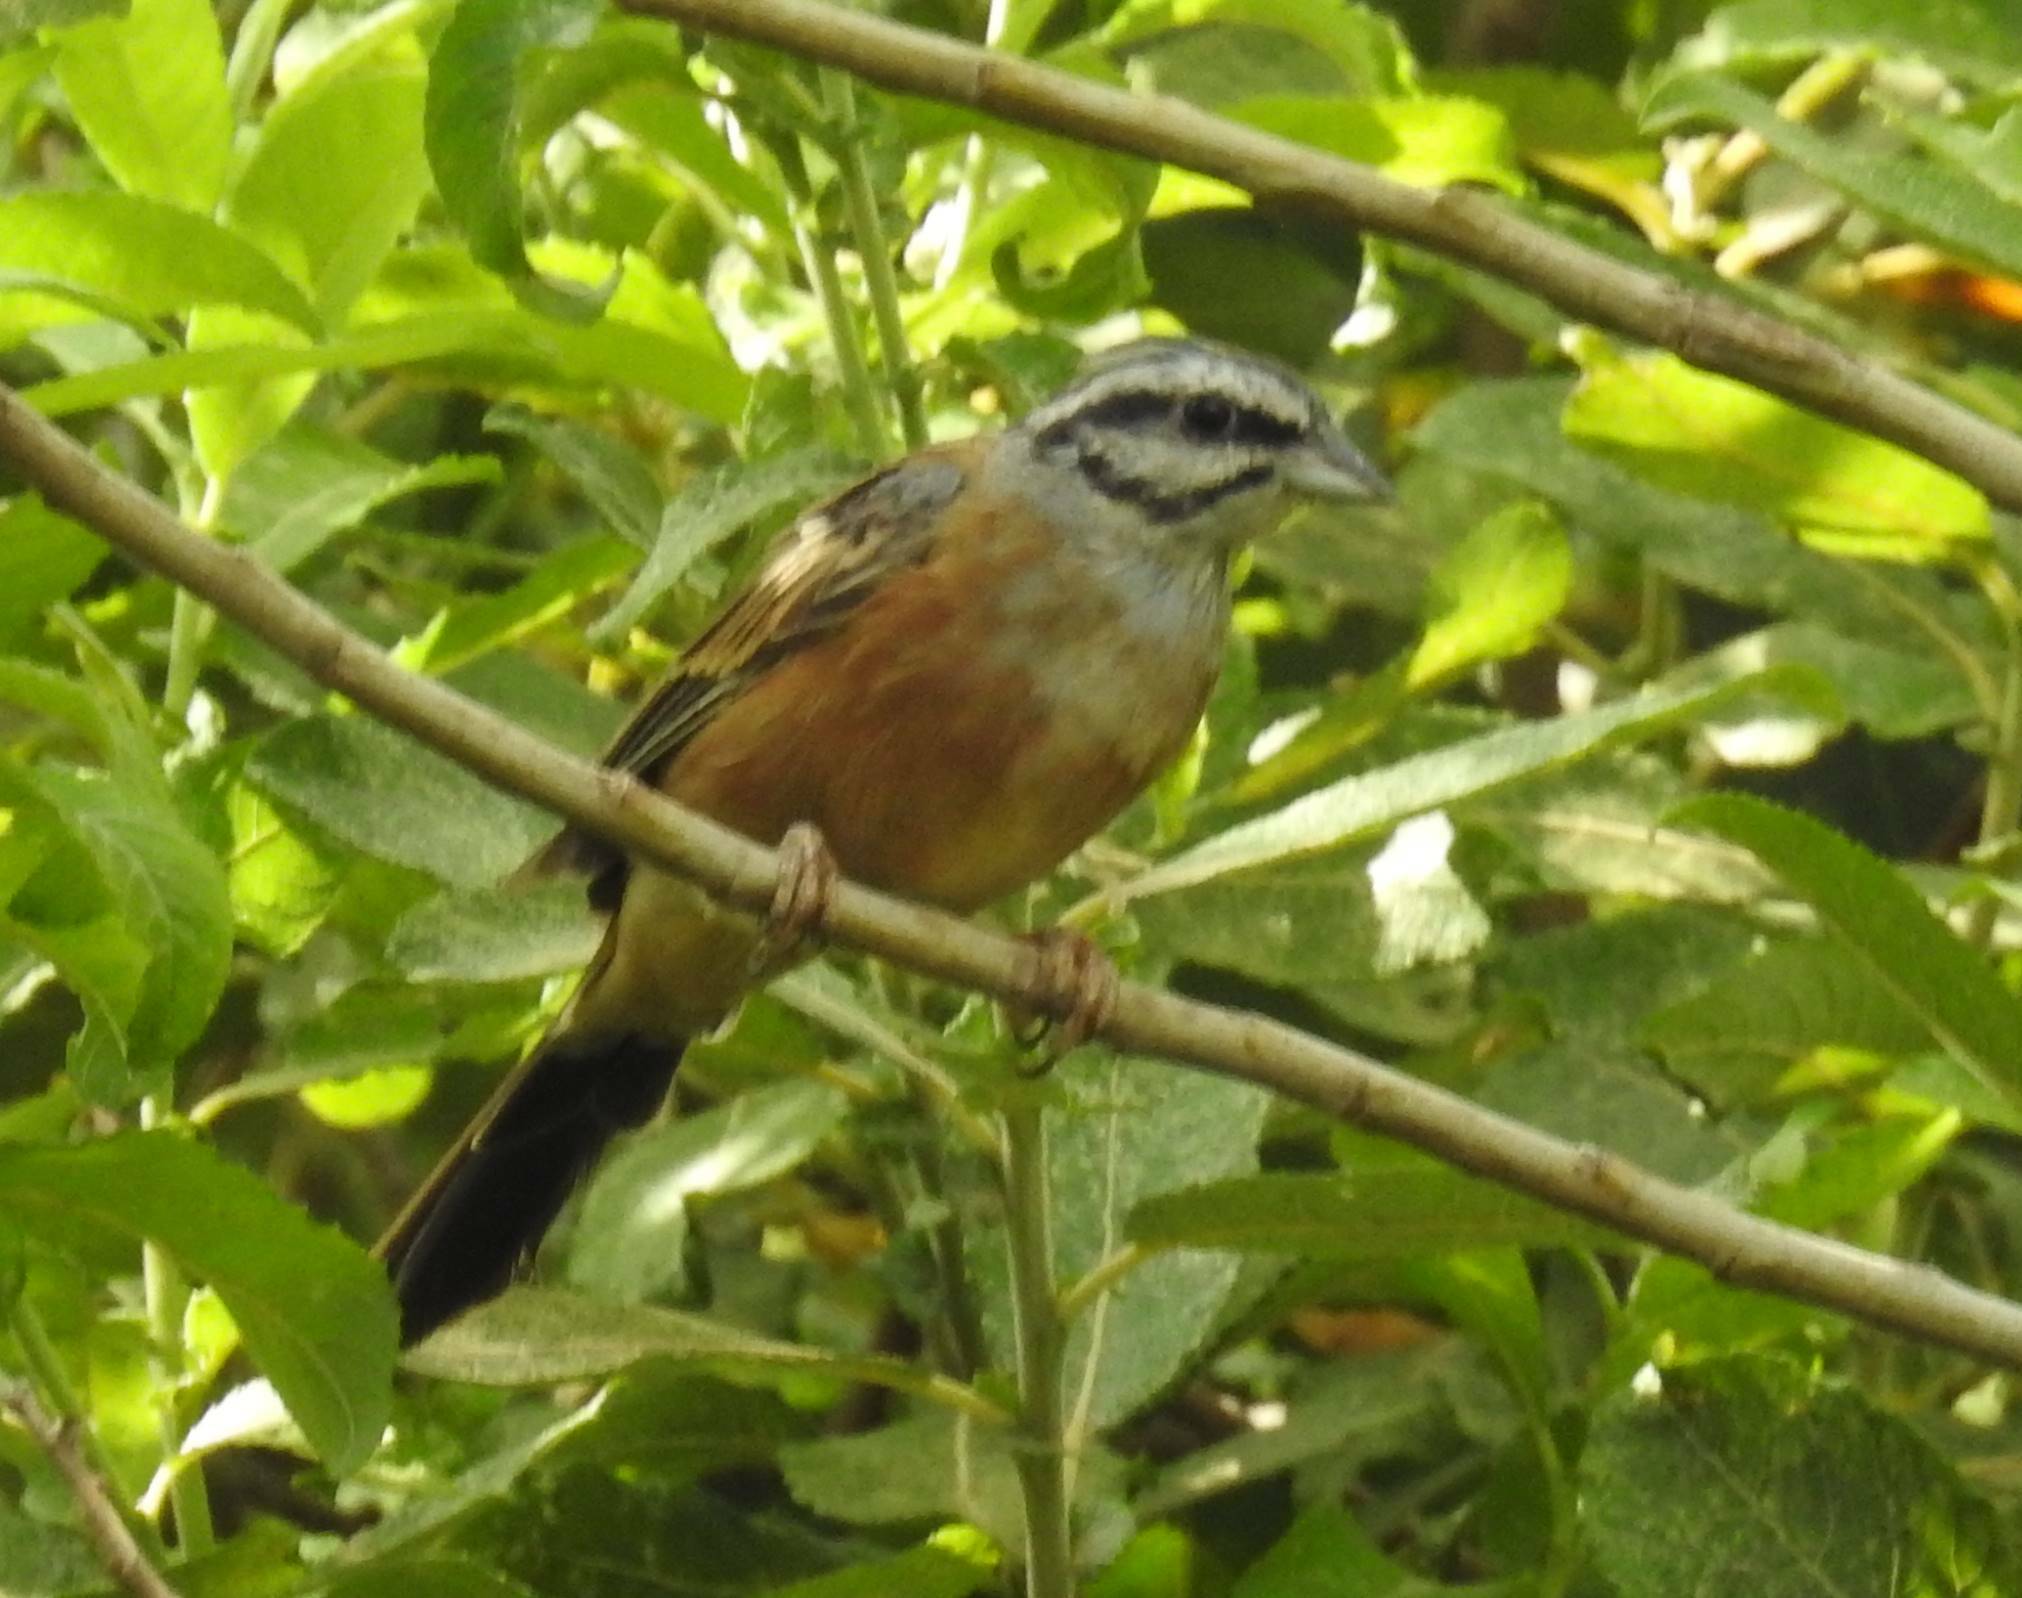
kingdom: Animalia
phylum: Chordata
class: Aves
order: Passeriformes
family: Emberizidae
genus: Emberiza
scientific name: Emberiza cia
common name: Rock bunting
